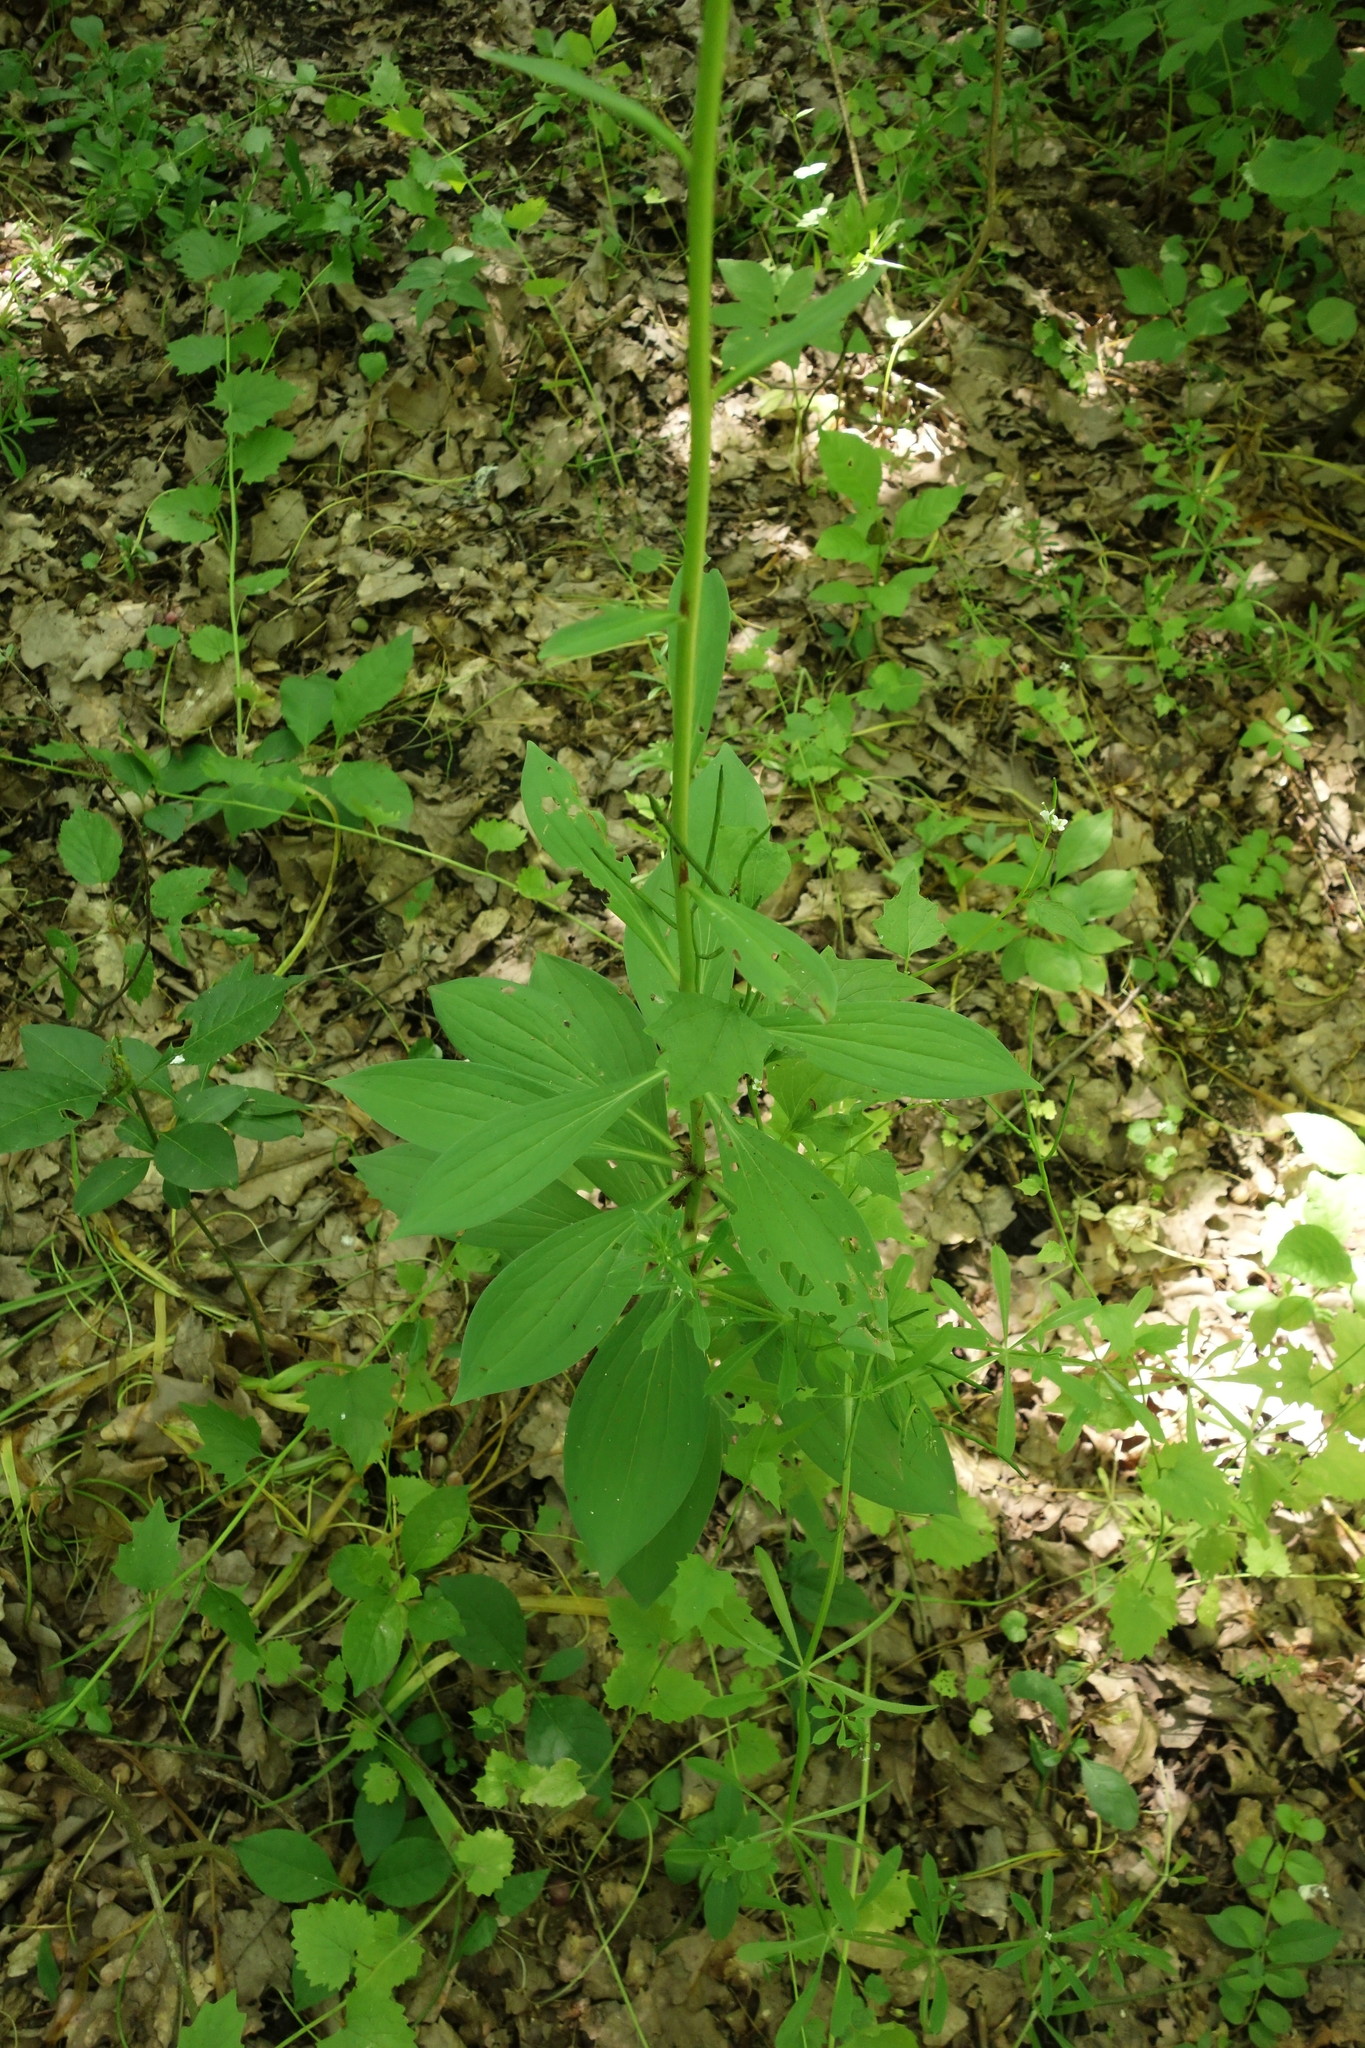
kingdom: Plantae
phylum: Tracheophyta
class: Liliopsida
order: Liliales
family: Liliaceae
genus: Lilium
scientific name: Lilium martagon
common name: Martagon lily
